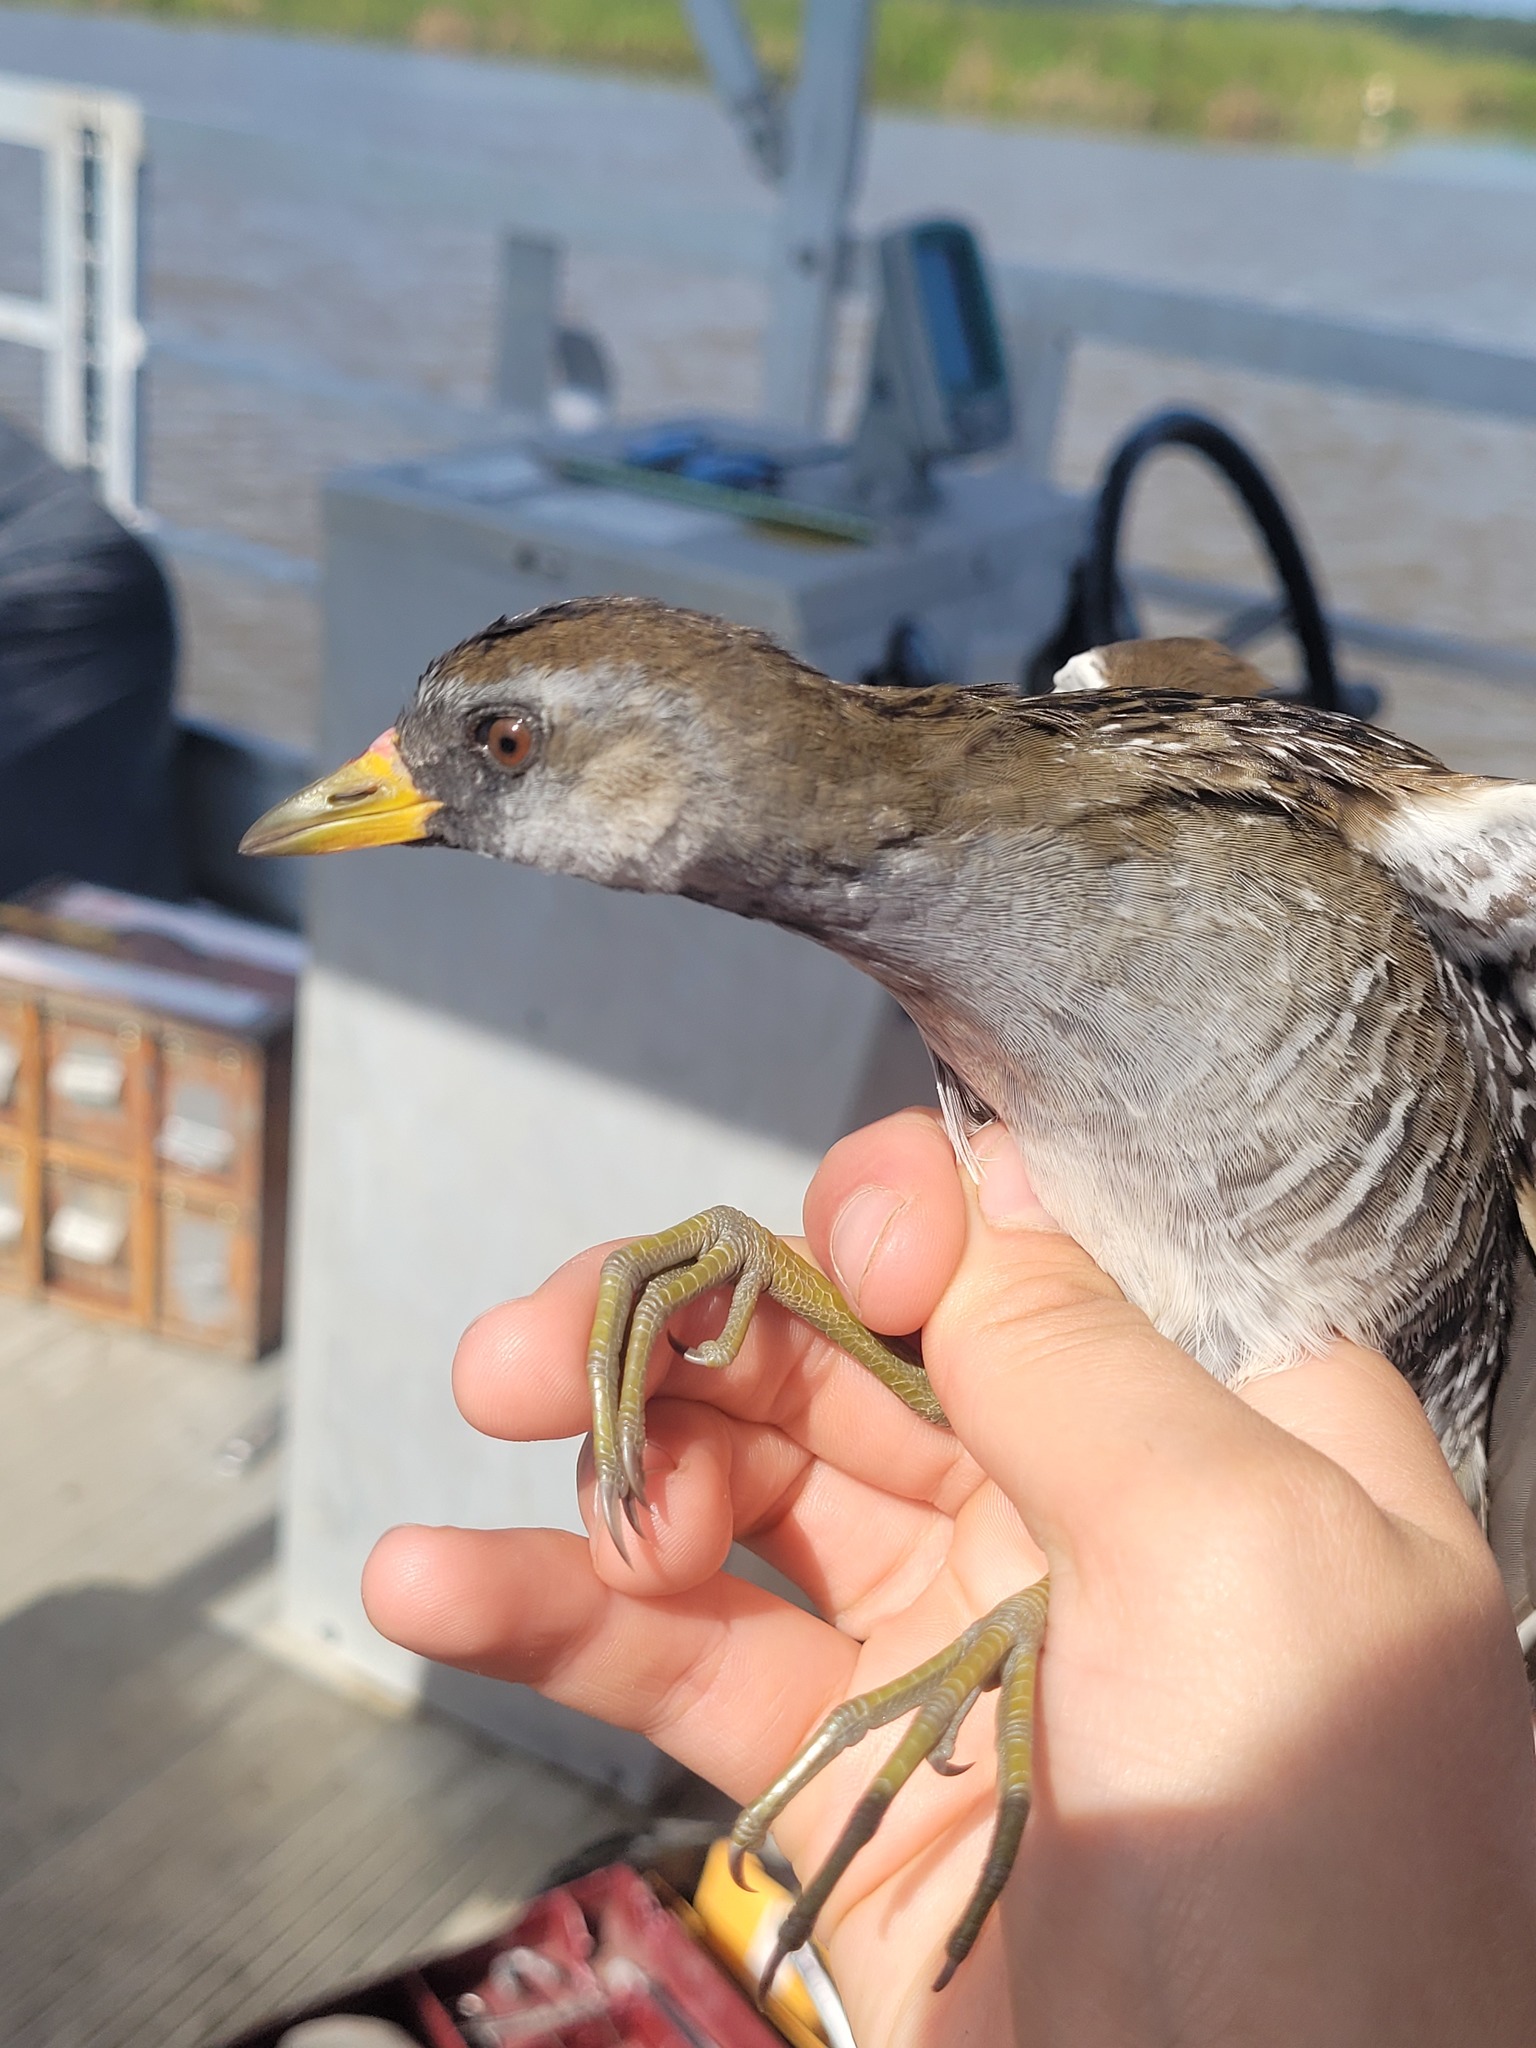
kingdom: Animalia
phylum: Chordata
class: Aves
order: Gruiformes
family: Rallidae
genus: Porzana
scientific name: Porzana carolina
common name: Sora
